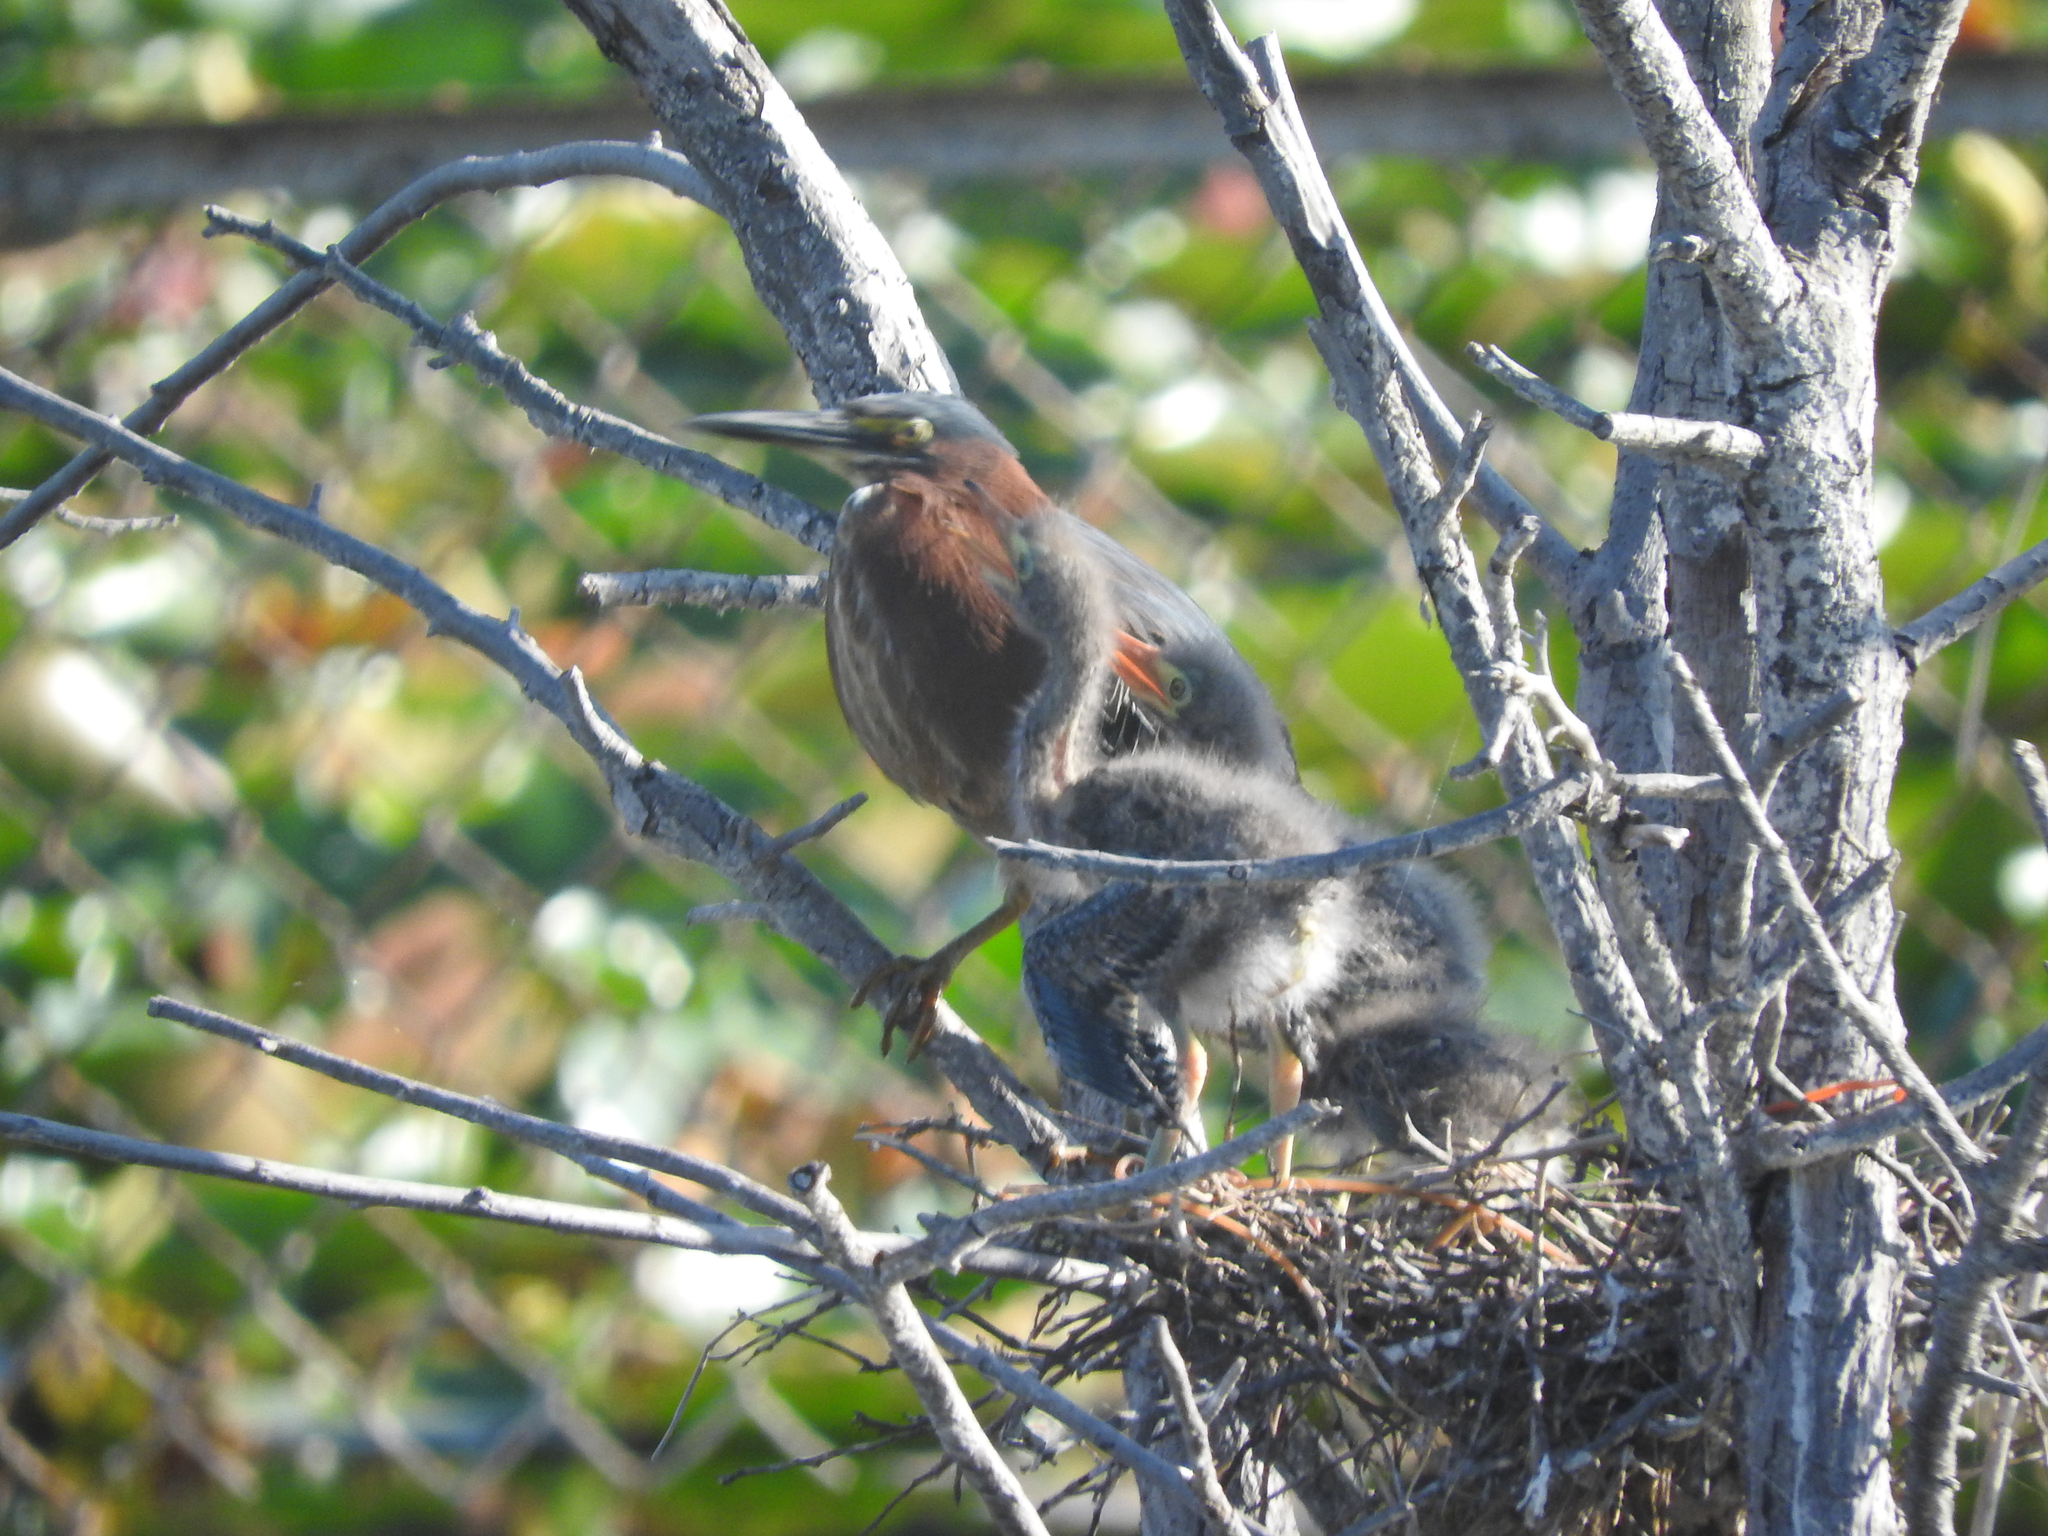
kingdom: Animalia
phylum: Chordata
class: Aves
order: Pelecaniformes
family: Ardeidae
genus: Butorides
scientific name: Butorides virescens
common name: Green heron
